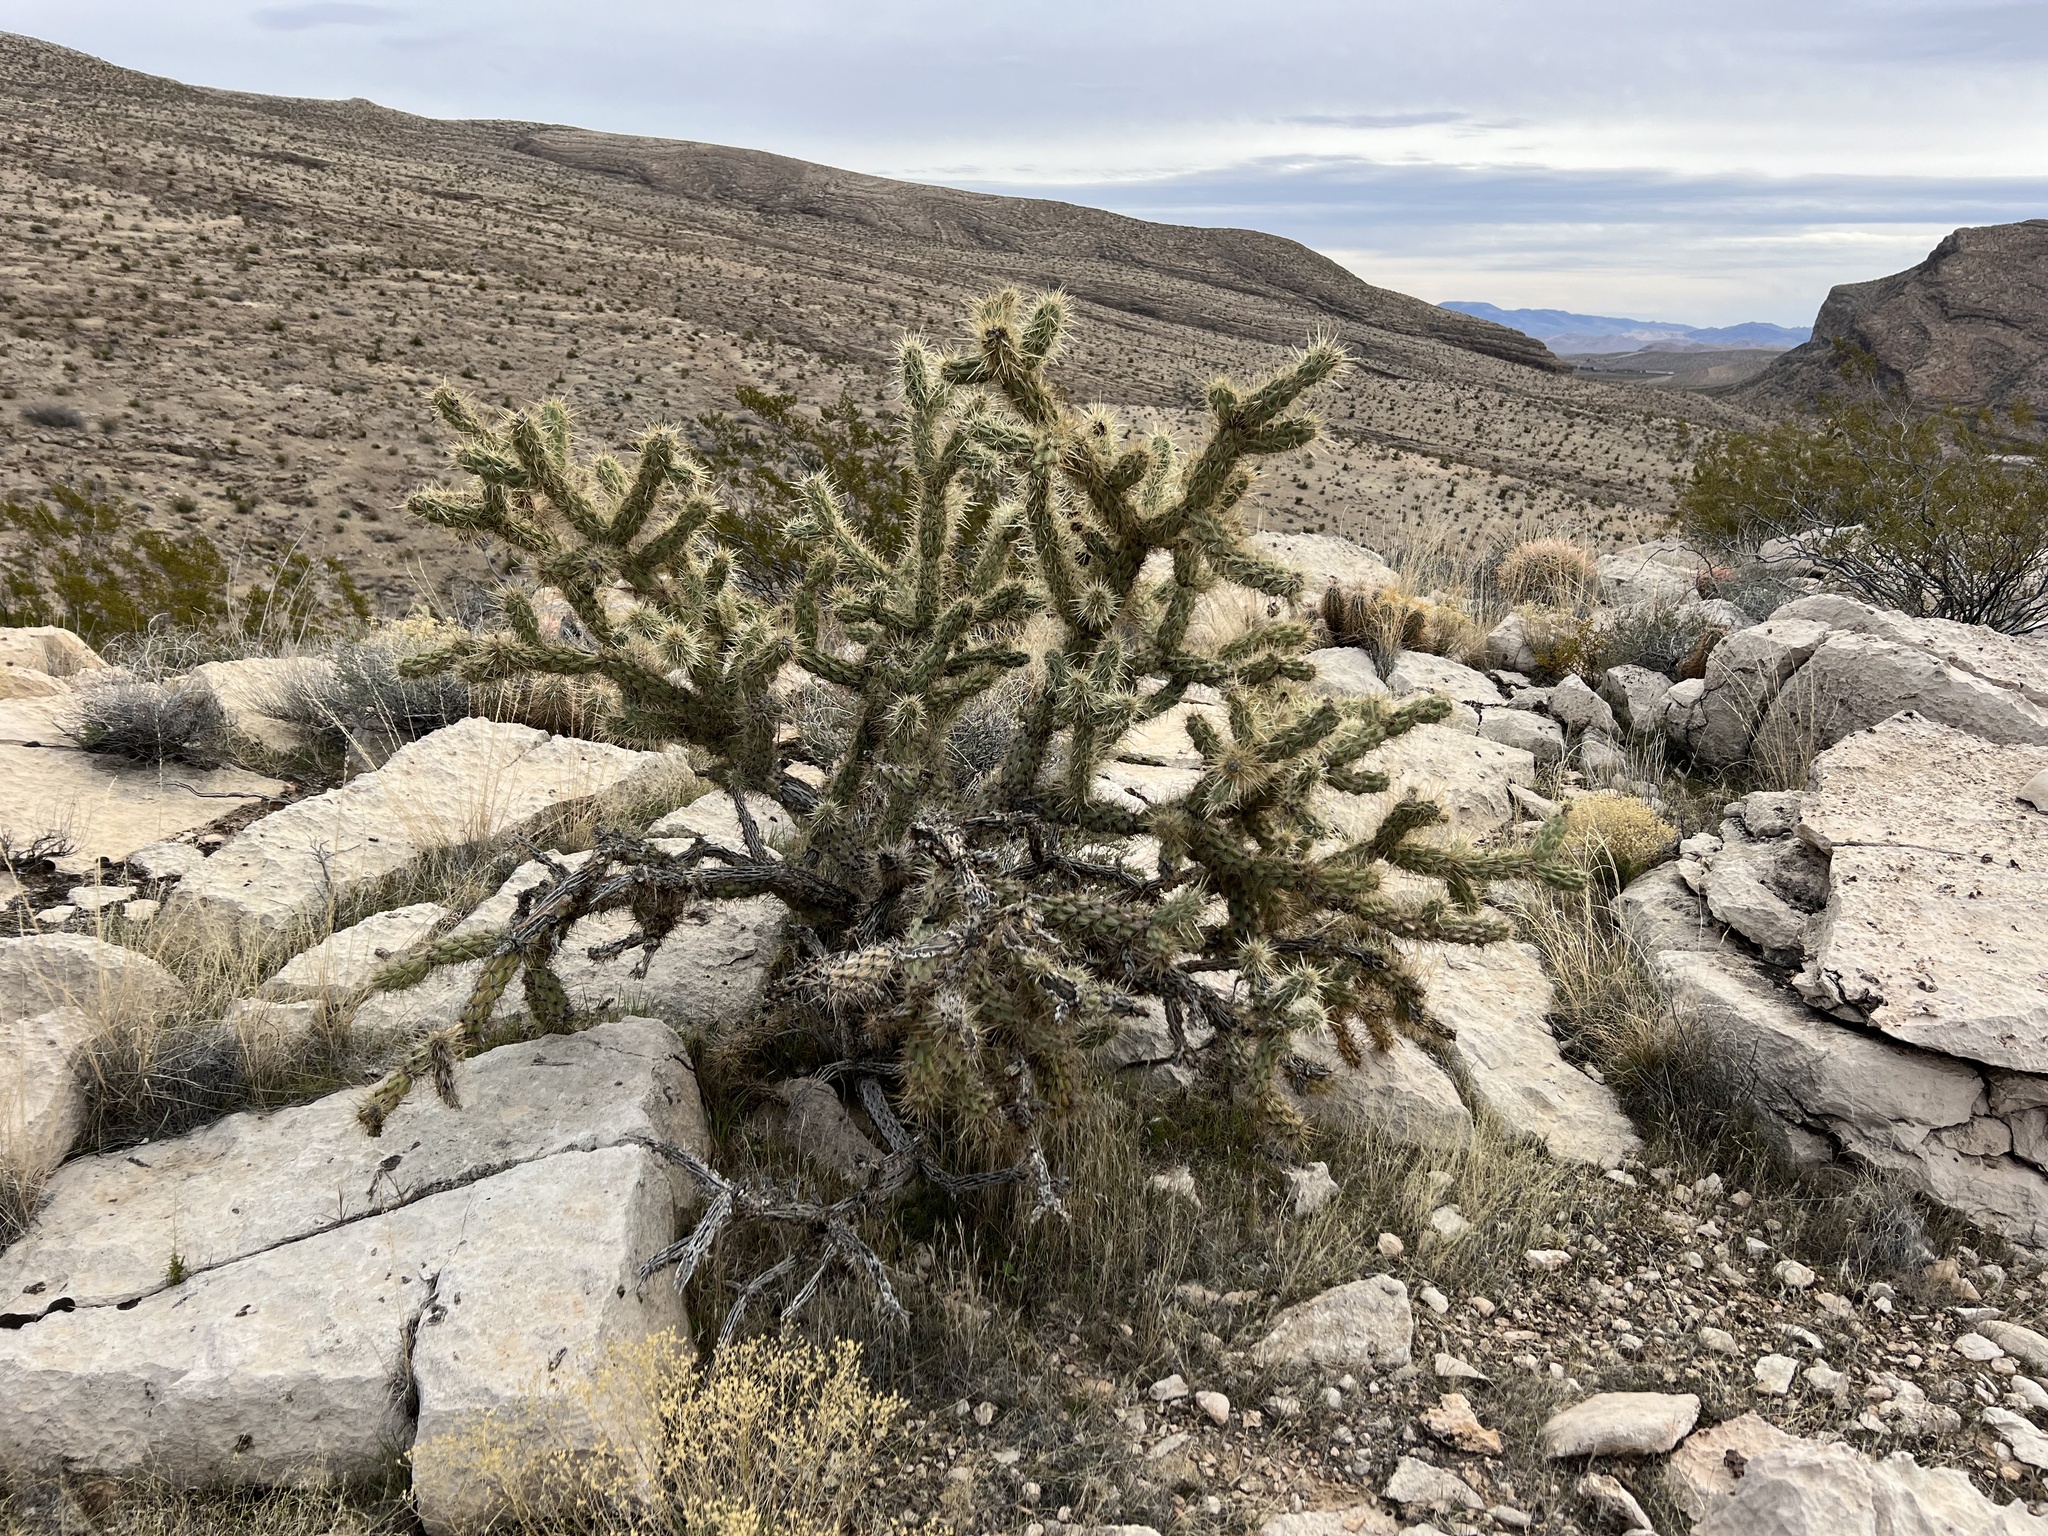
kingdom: Plantae
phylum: Tracheophyta
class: Magnoliopsida
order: Caryophyllales
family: Cactaceae
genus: Cylindropuntia
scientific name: Cylindropuntia acanthocarpa
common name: Buckhorn cholla
